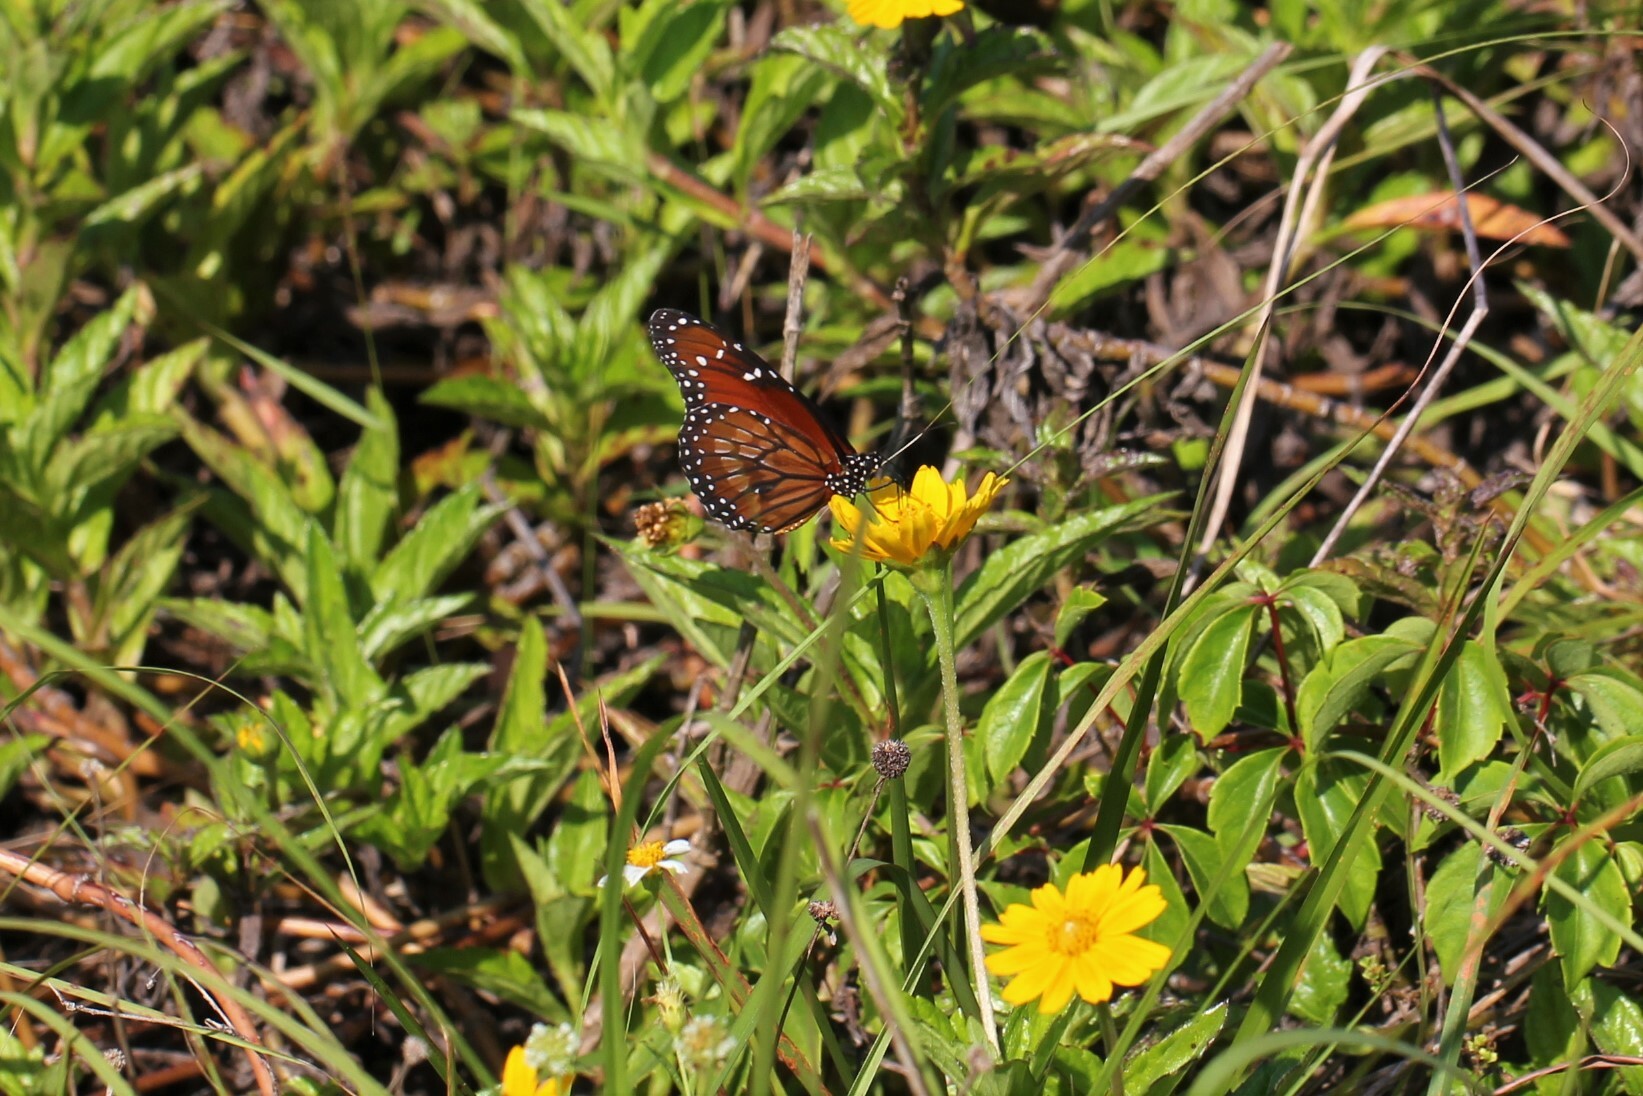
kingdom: Animalia
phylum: Arthropoda
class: Insecta
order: Lepidoptera
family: Nymphalidae
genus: Danaus
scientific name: Danaus eresimus
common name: Soldier
